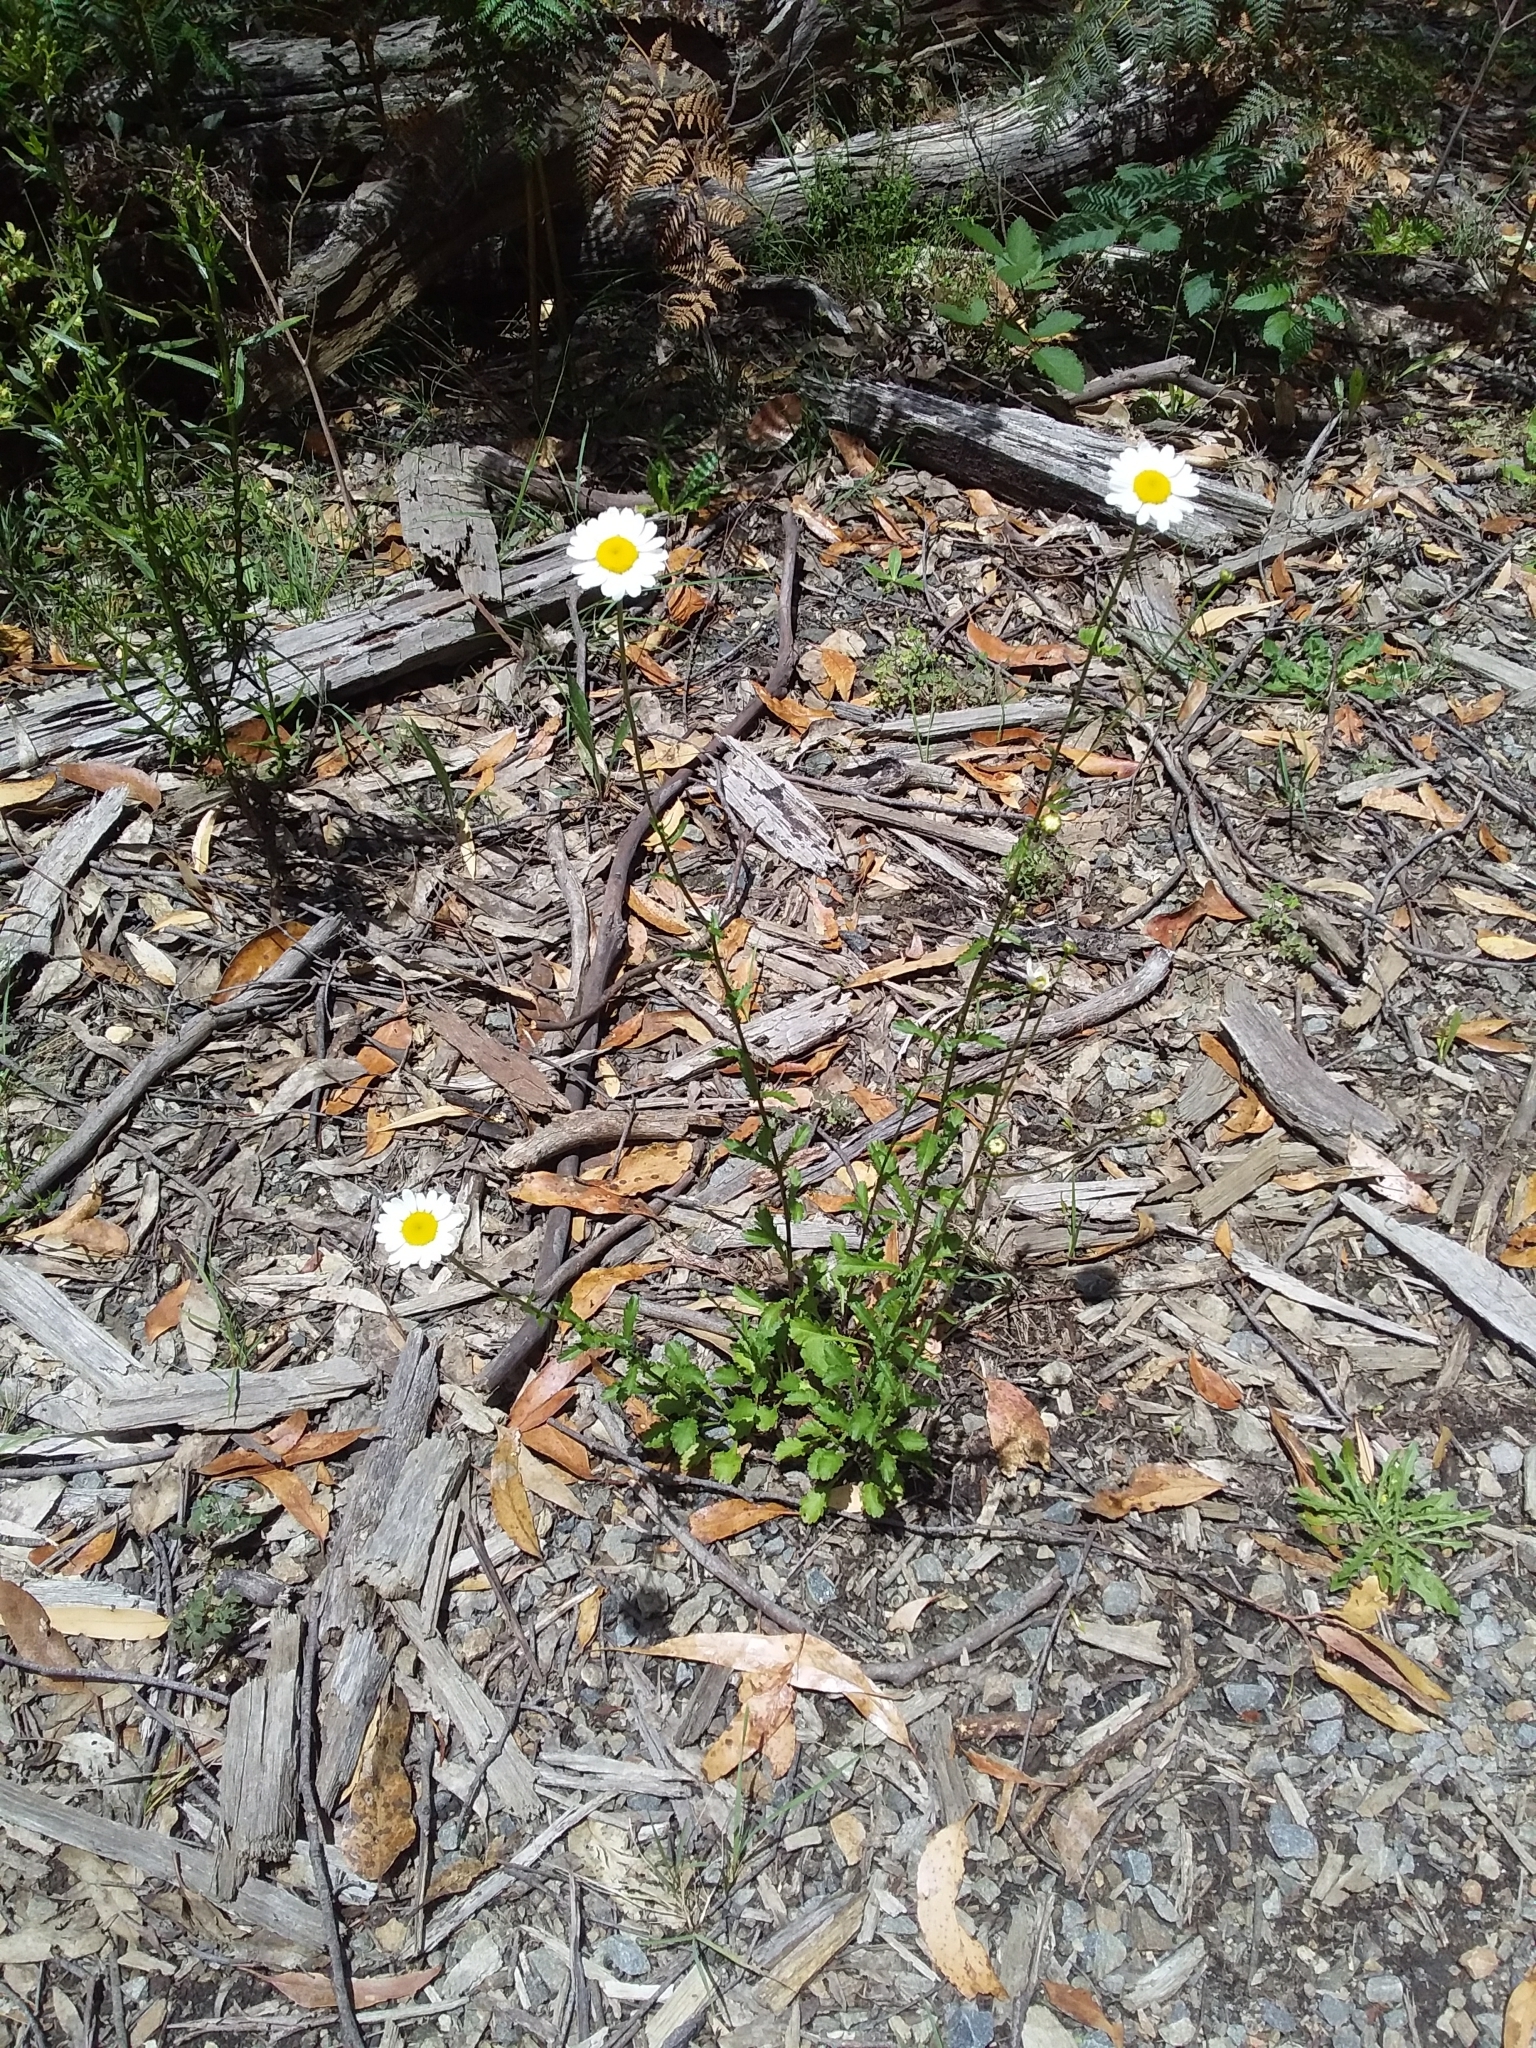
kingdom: Plantae
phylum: Tracheophyta
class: Magnoliopsida
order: Asterales
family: Asteraceae
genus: Leucanthemum
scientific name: Leucanthemum vulgare
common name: Oxeye daisy
